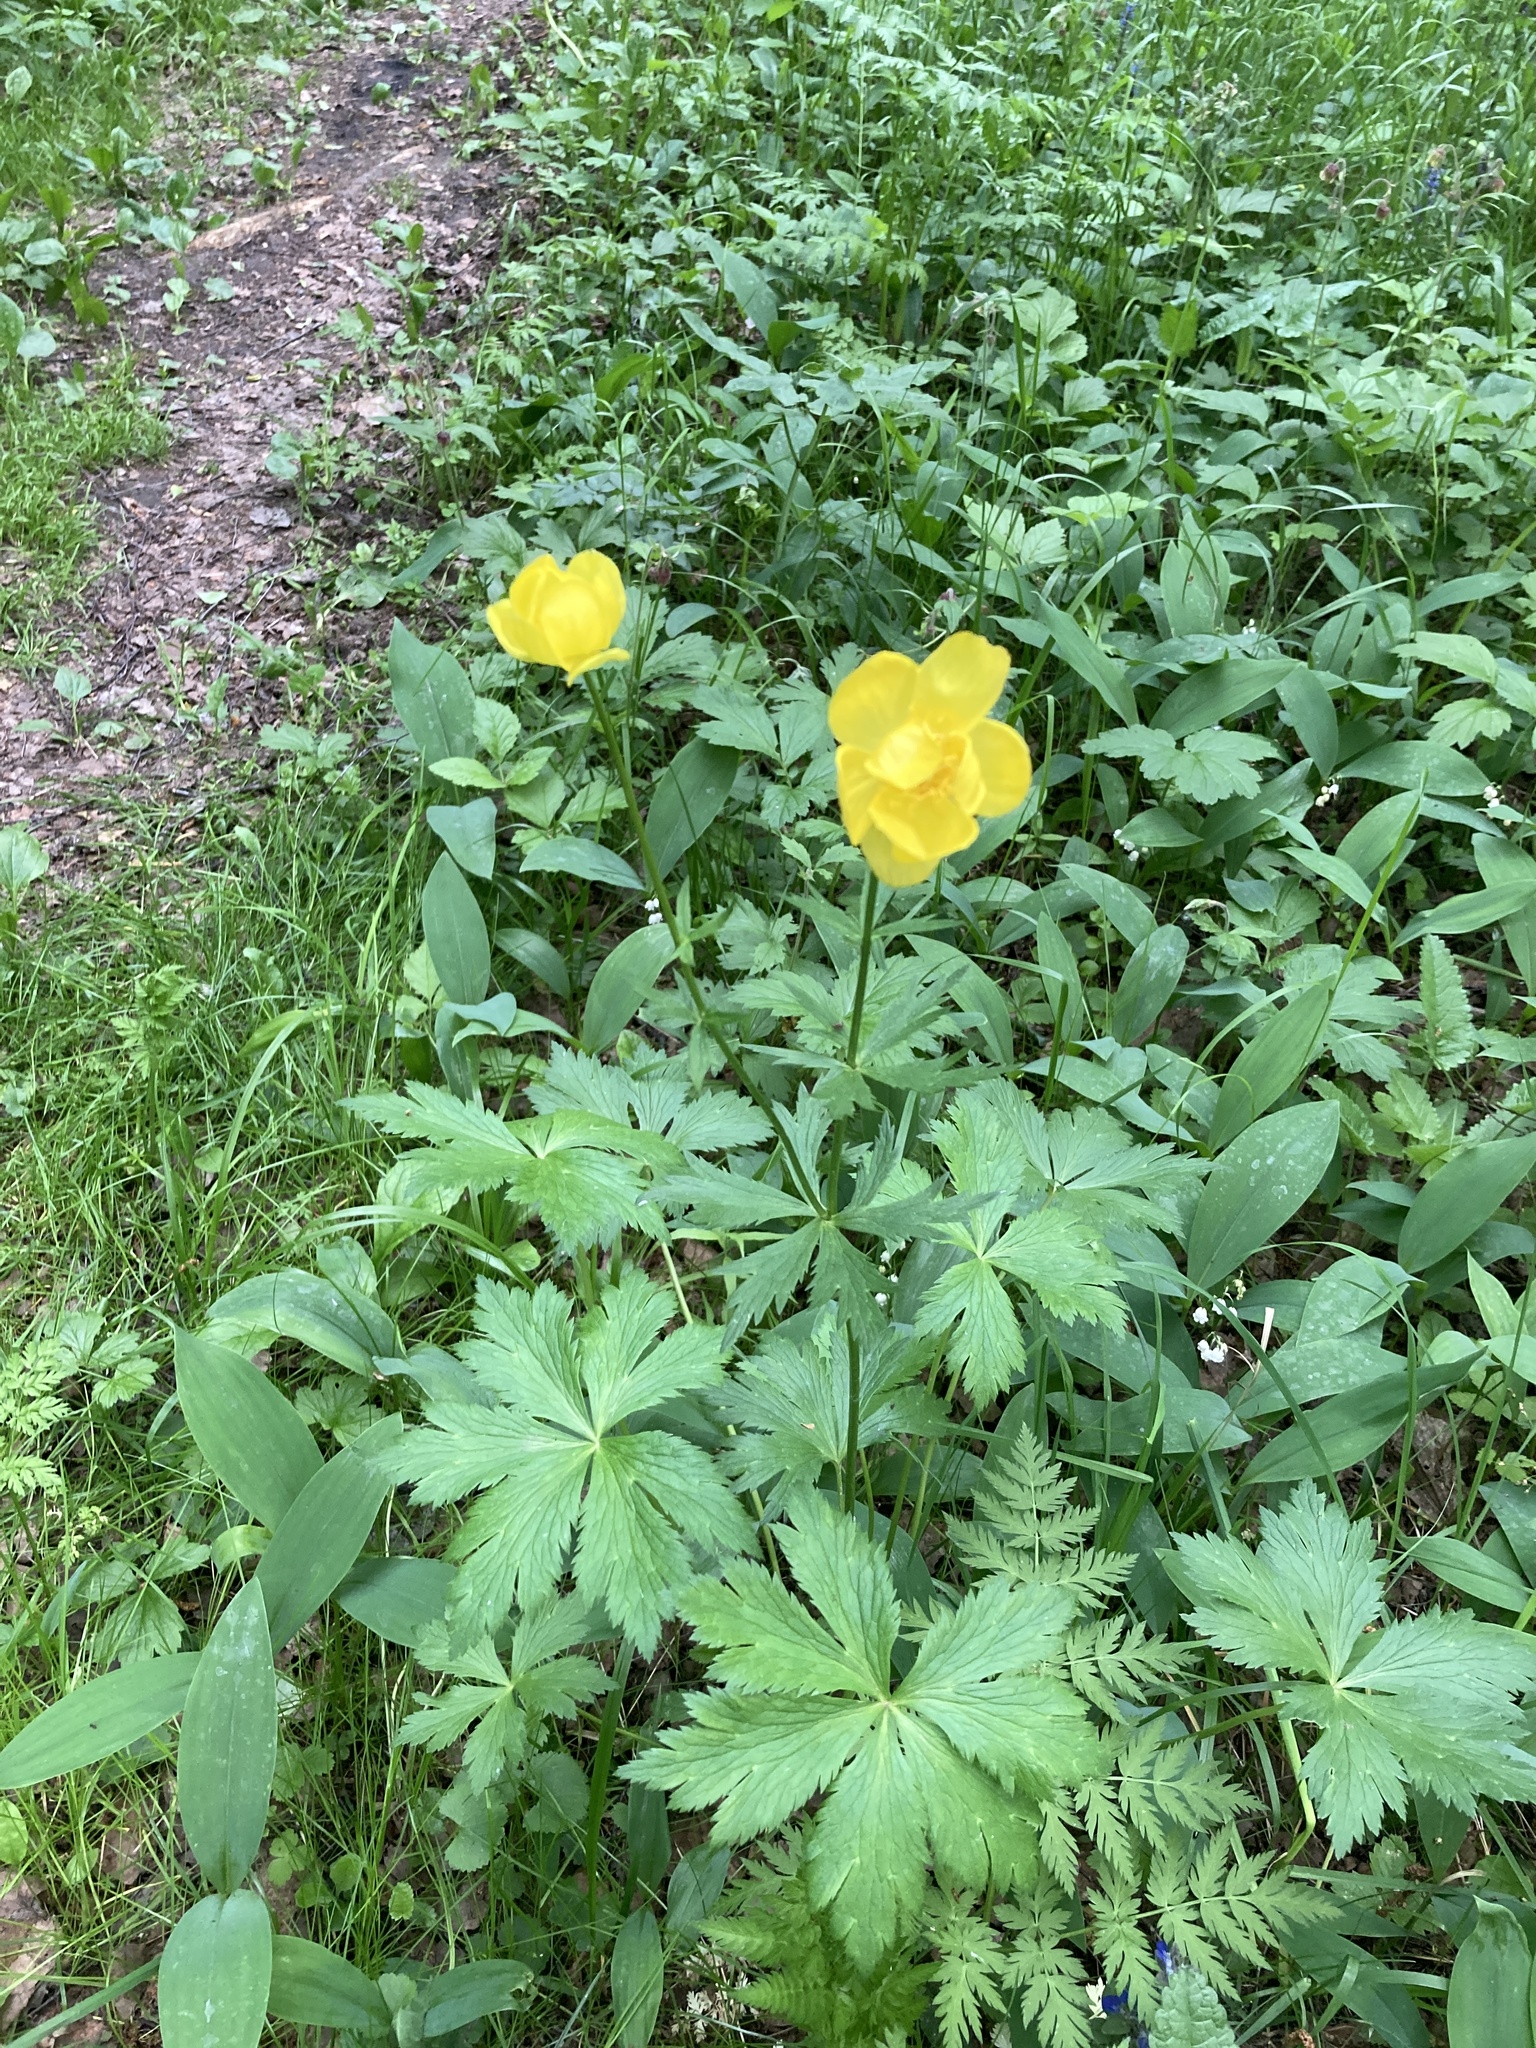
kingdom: Plantae
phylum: Tracheophyta
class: Magnoliopsida
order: Ranunculales
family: Ranunculaceae
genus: Trollius
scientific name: Trollius europaeus
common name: European globeflower
